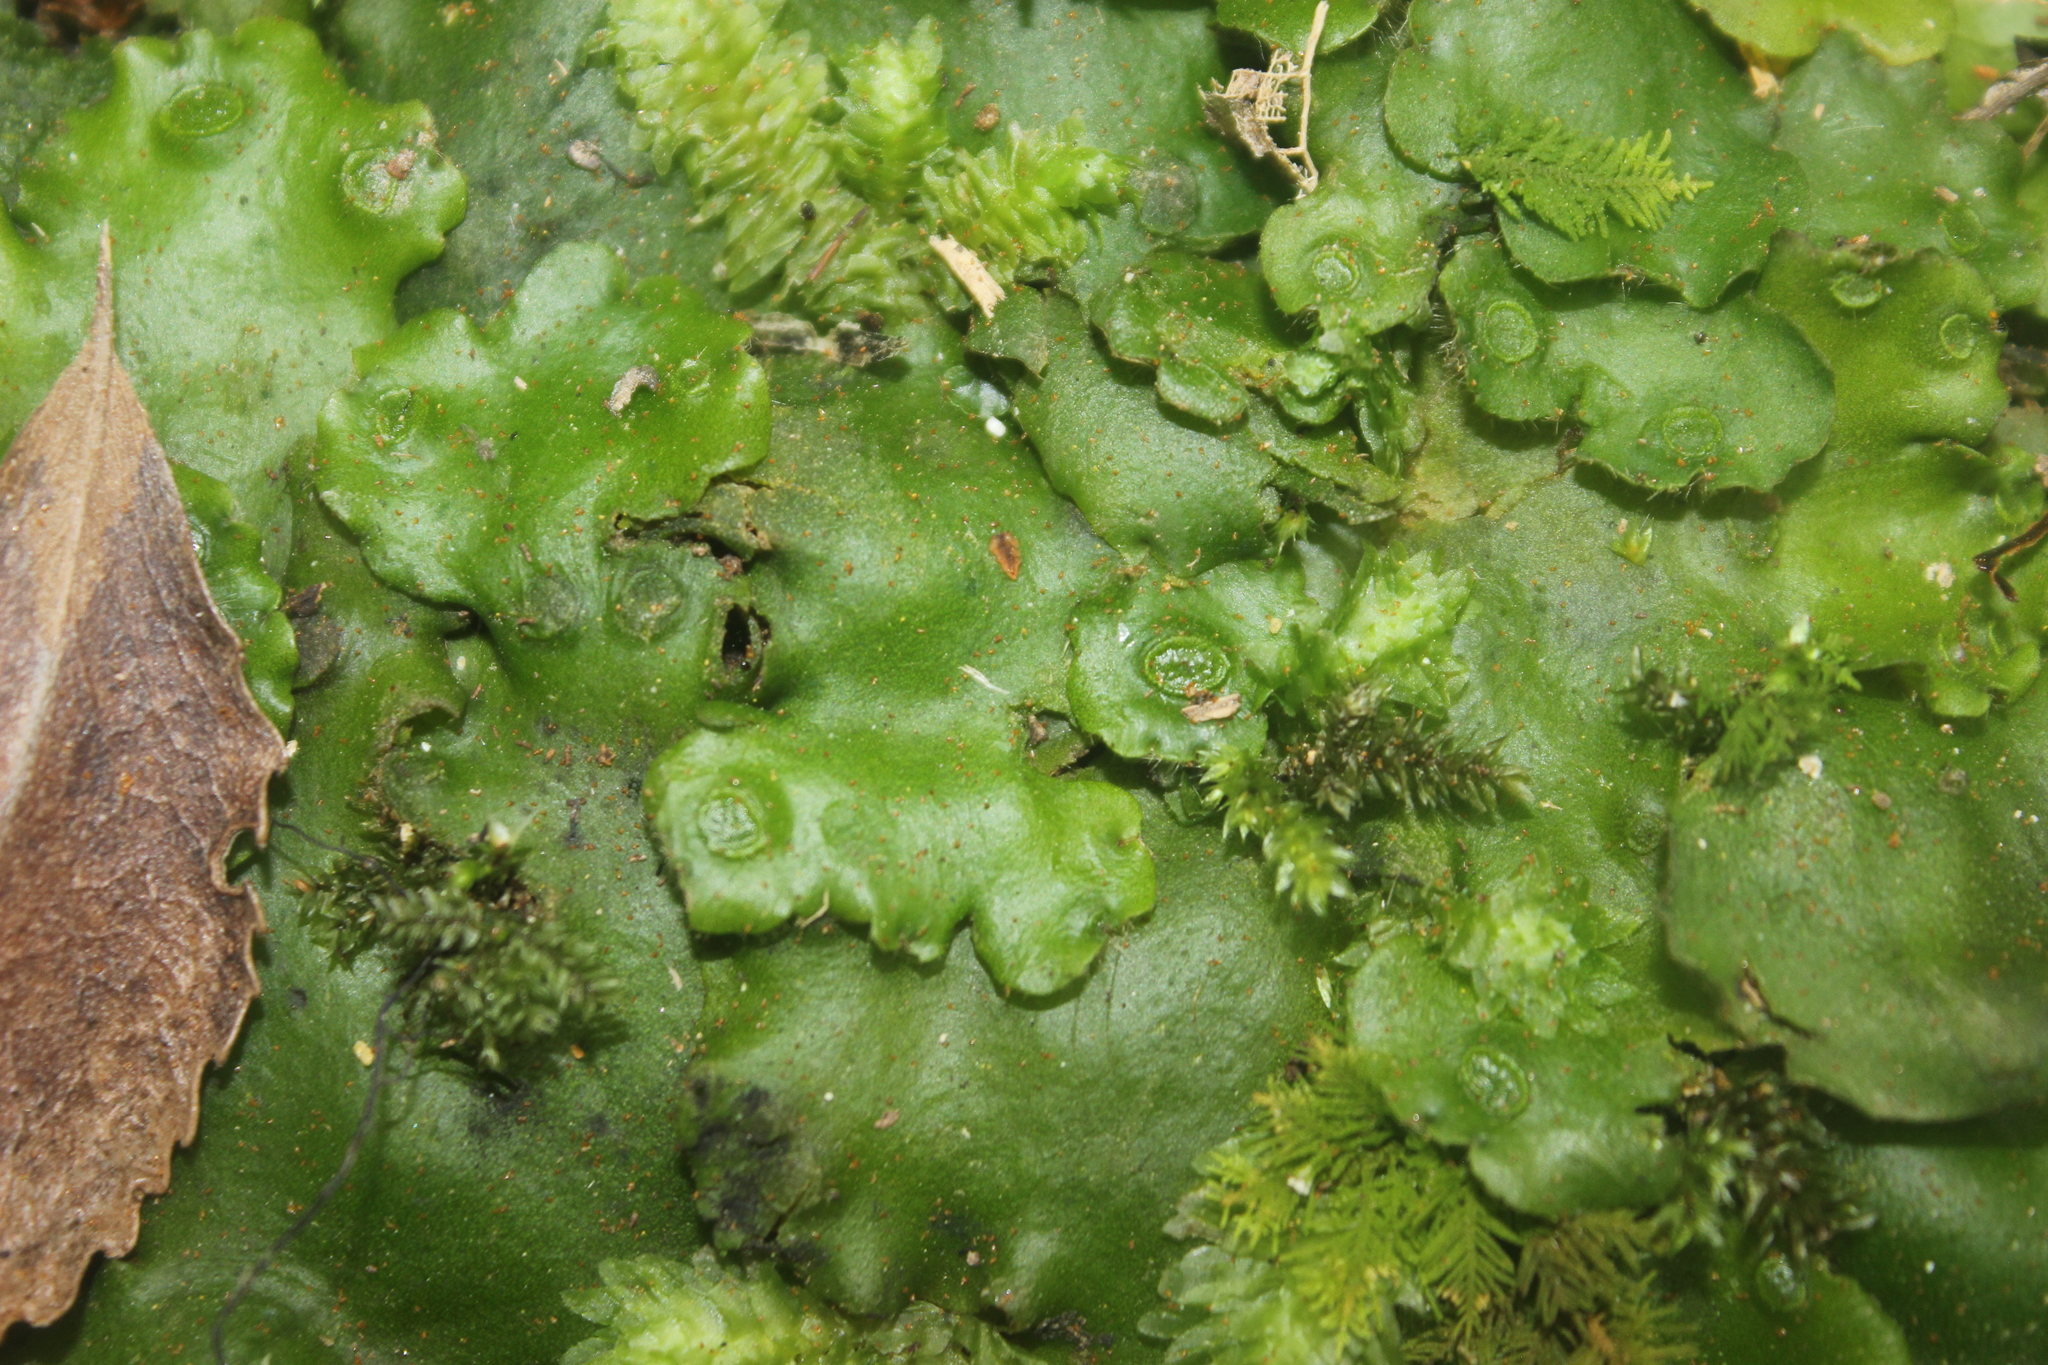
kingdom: Plantae
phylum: Marchantiophyta
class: Marchantiopsida
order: Marchantiales
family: Monocleaceae
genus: Monoclea
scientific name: Monoclea forsteri
